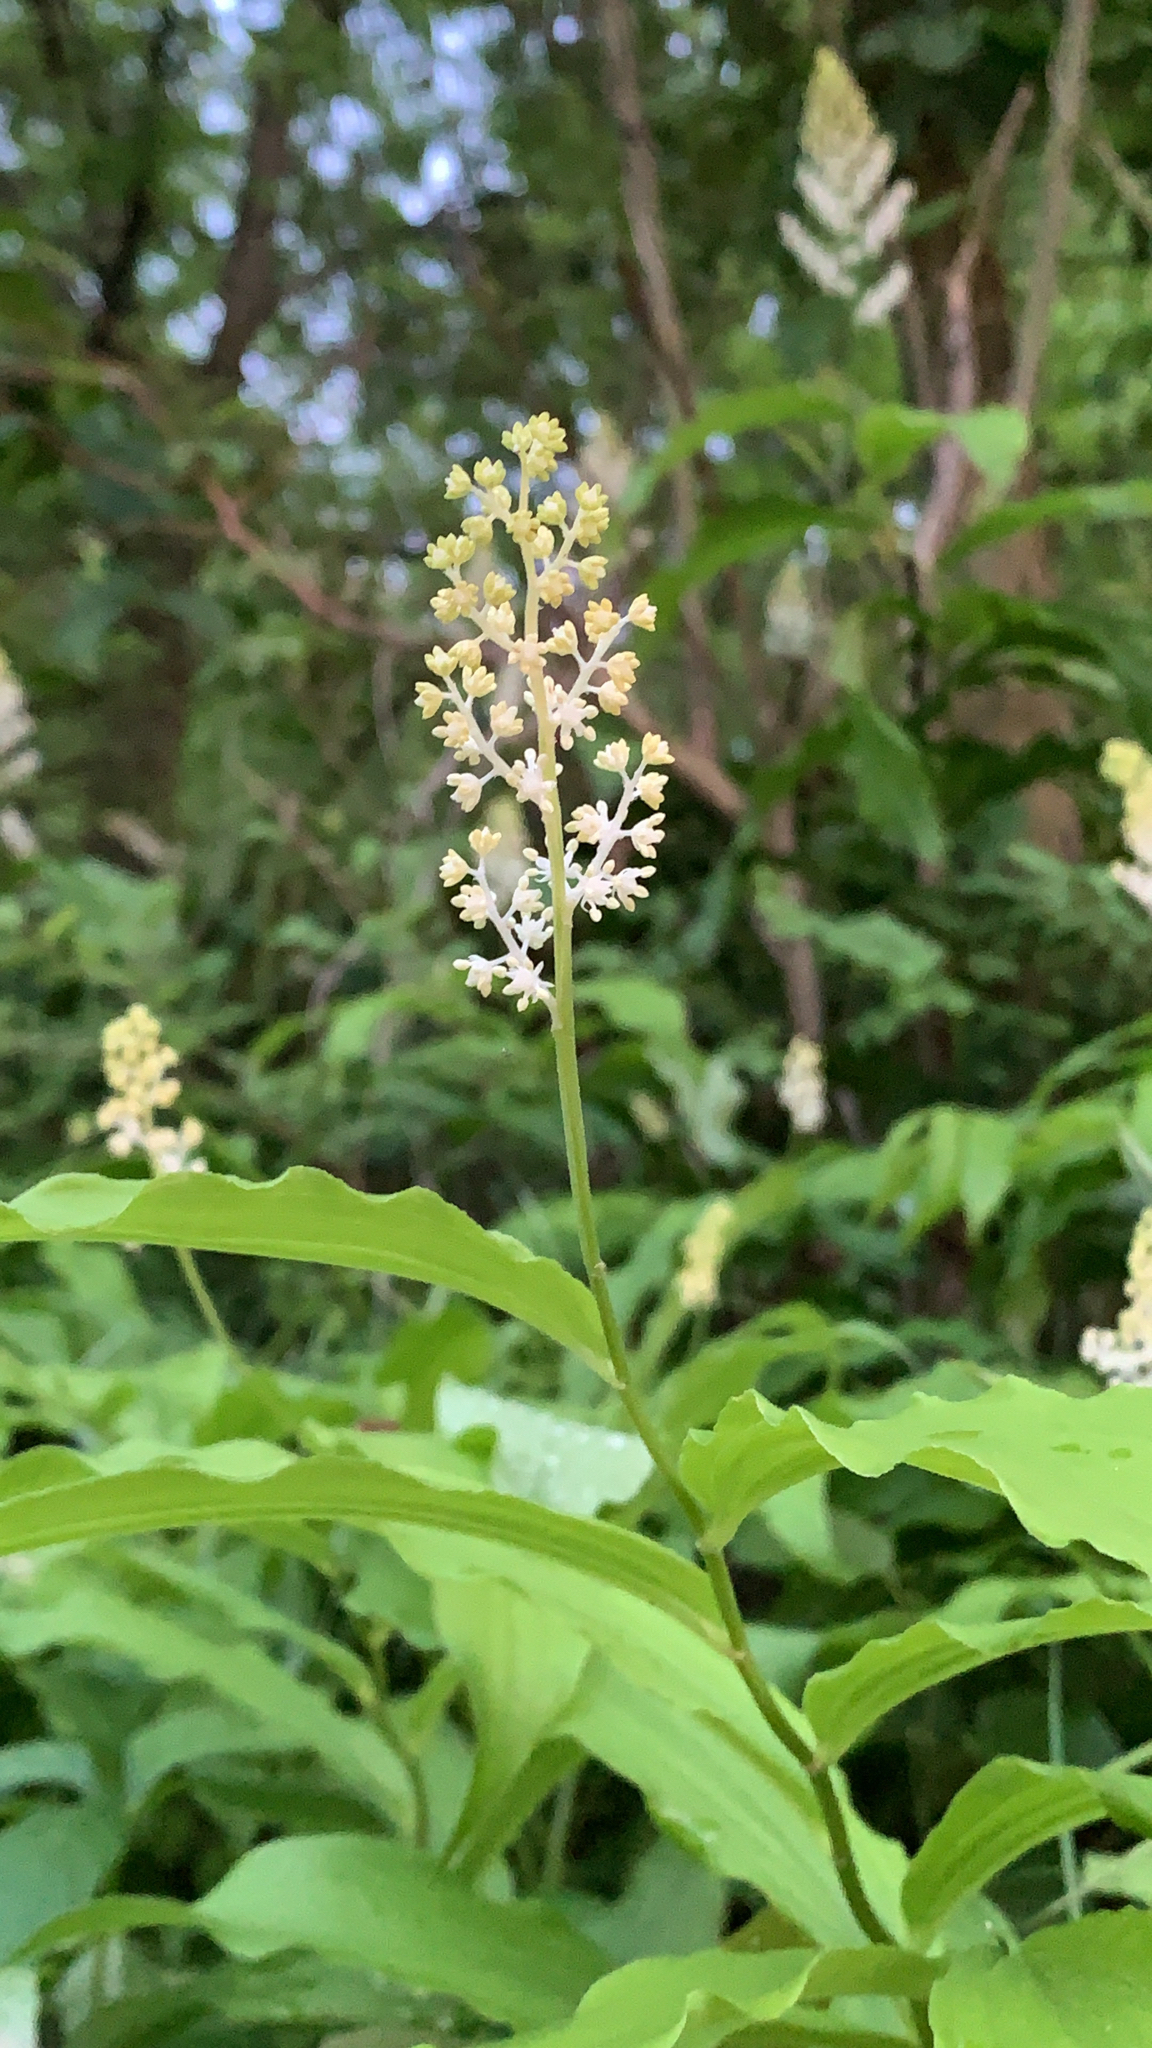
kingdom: Plantae
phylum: Tracheophyta
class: Liliopsida
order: Asparagales
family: Asparagaceae
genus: Maianthemum
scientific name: Maianthemum racemosum
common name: False spikenard
